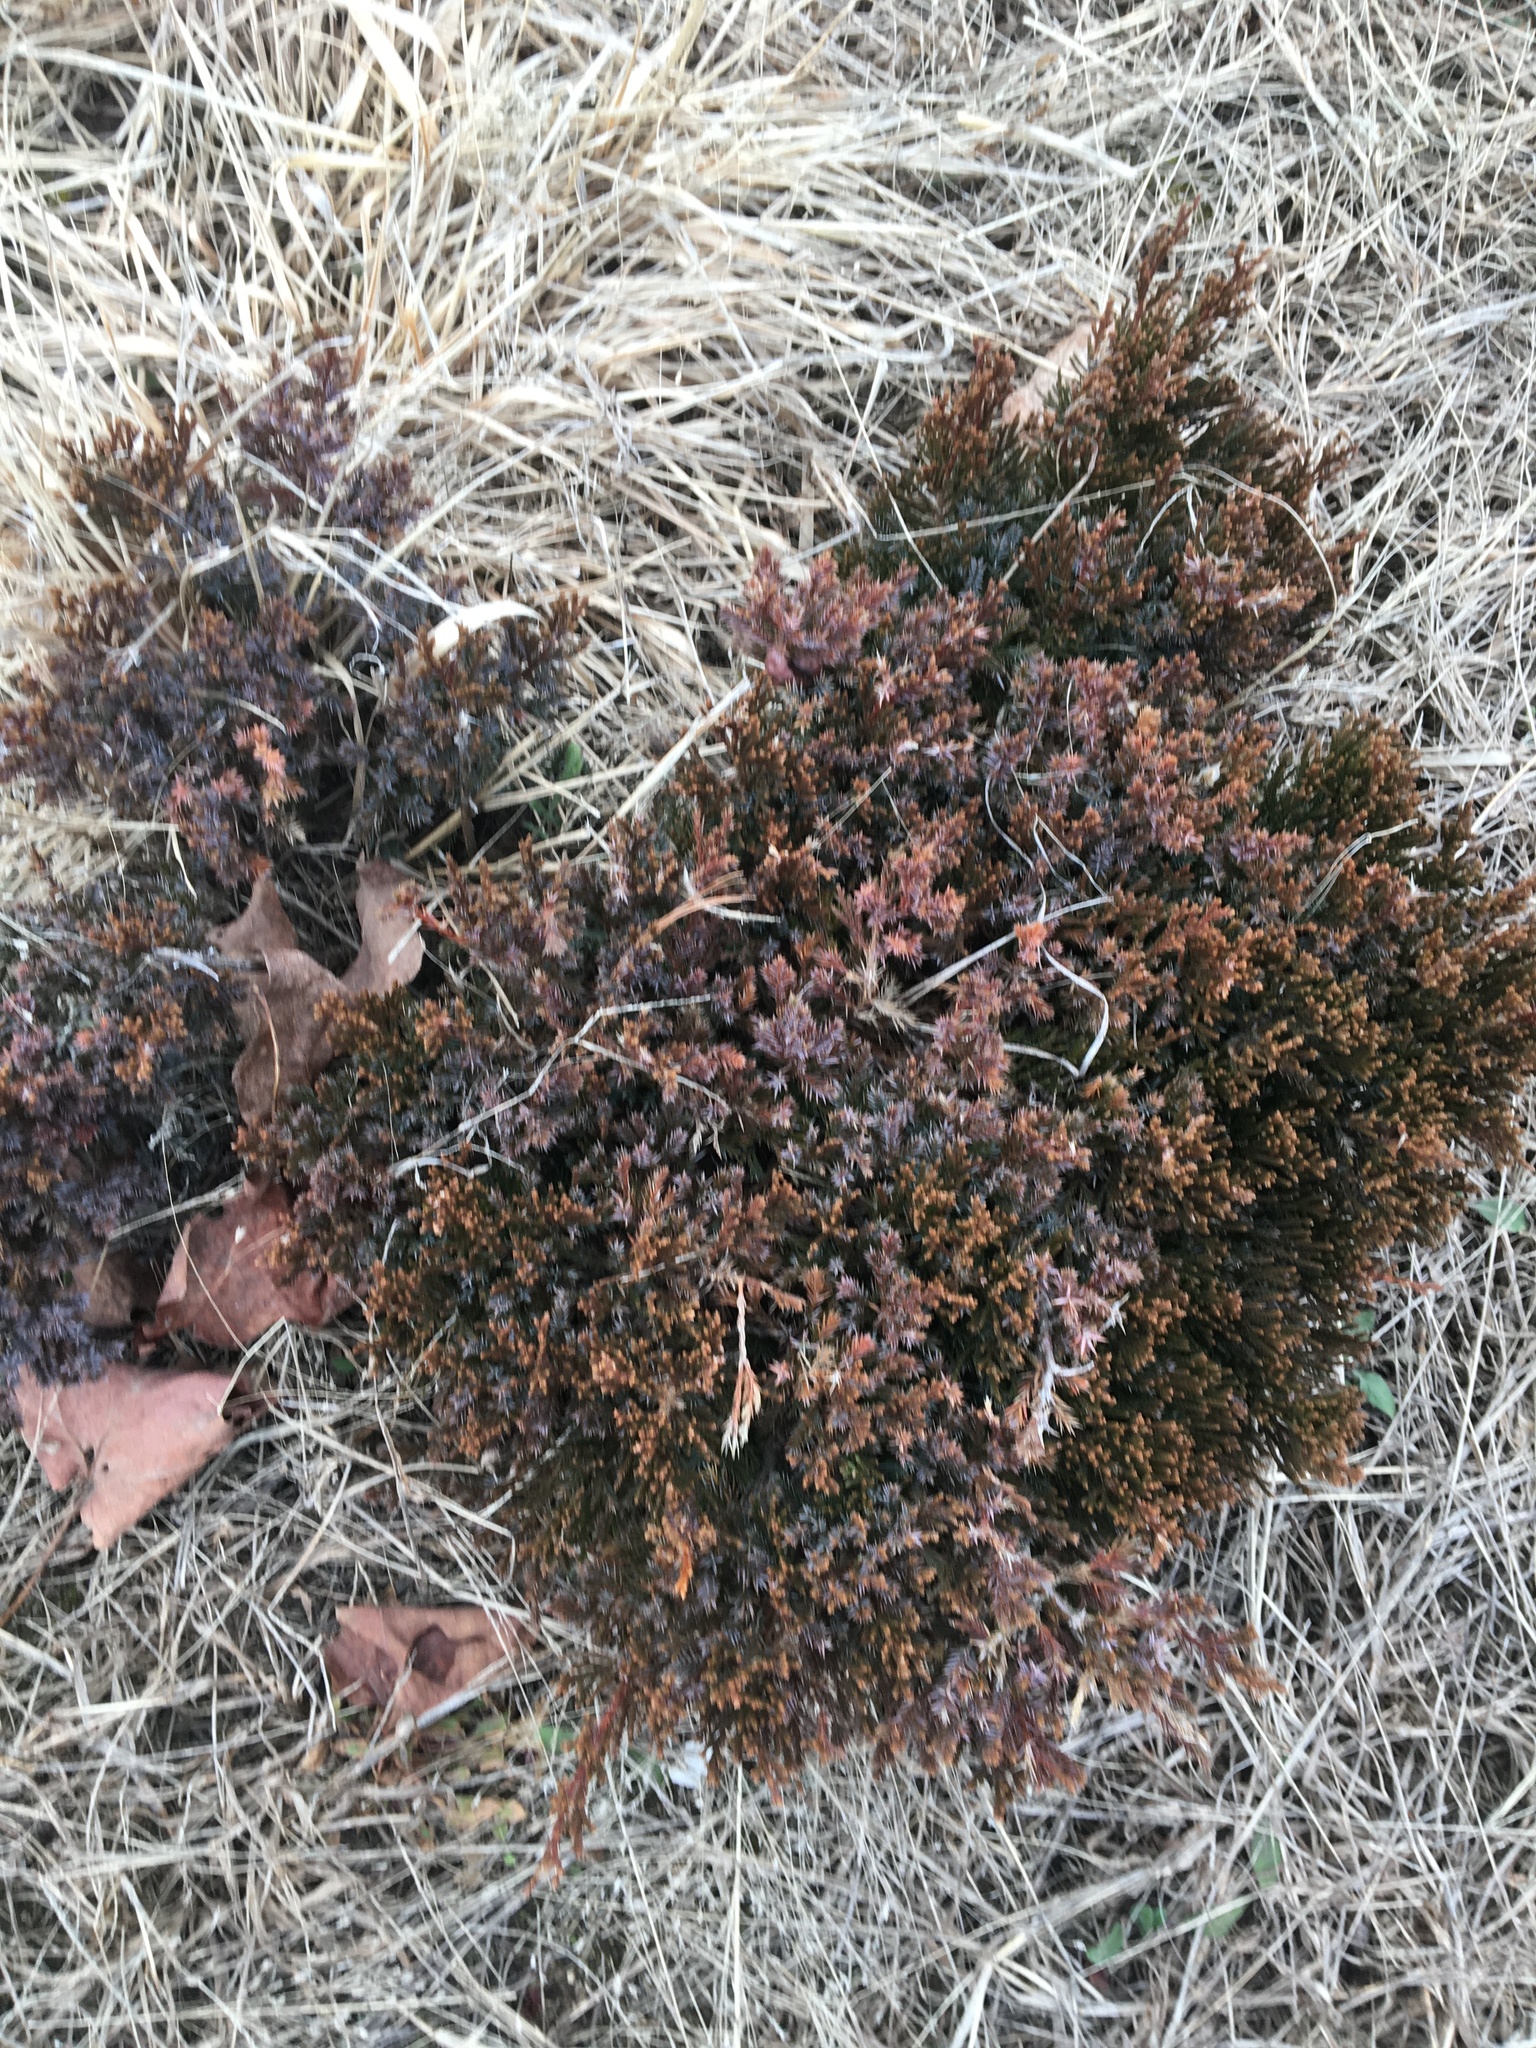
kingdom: Plantae
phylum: Tracheophyta
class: Pinopsida
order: Pinales
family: Cupressaceae
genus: Juniperus
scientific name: Juniperus virginiana
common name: Red juniper
